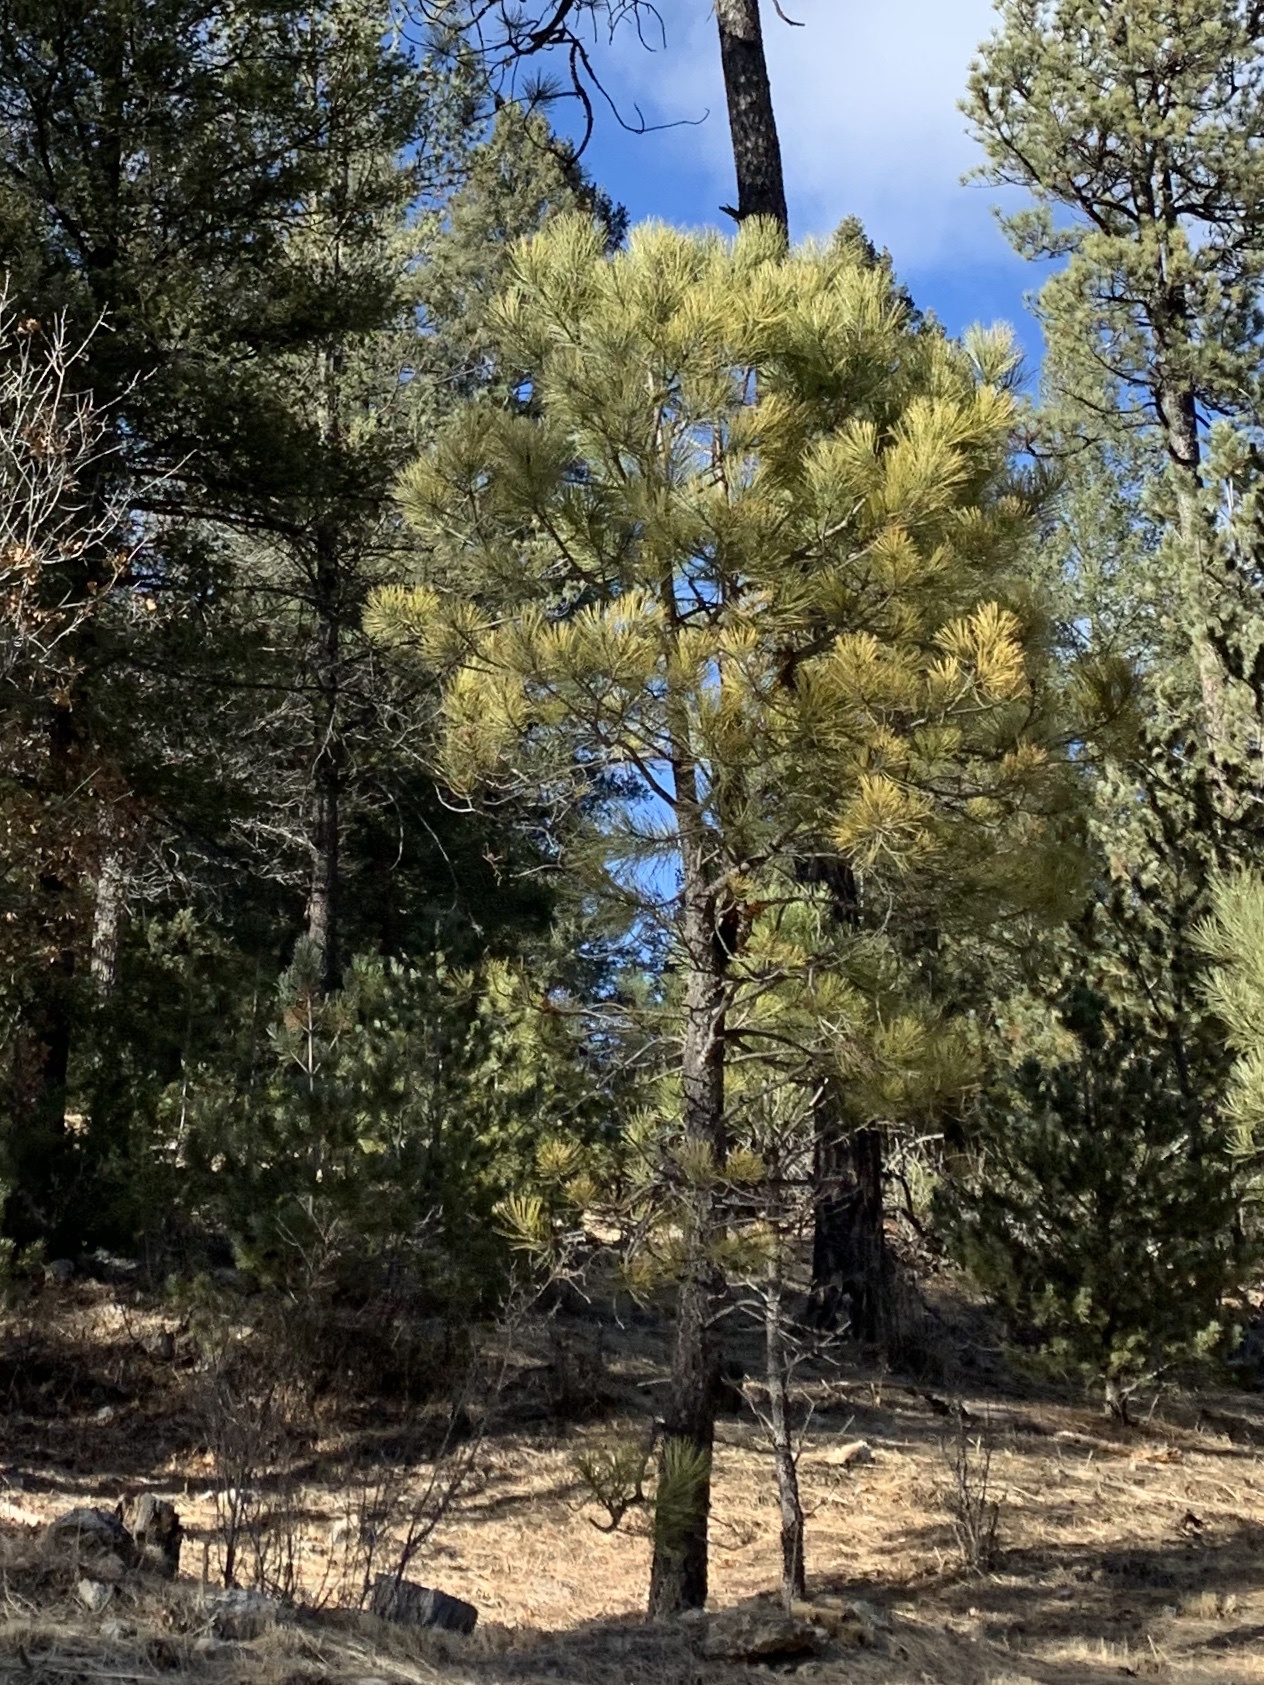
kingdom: Plantae
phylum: Tracheophyta
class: Pinopsida
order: Pinales
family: Pinaceae
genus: Pinus
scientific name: Pinus ponderosa
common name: Western yellow-pine
